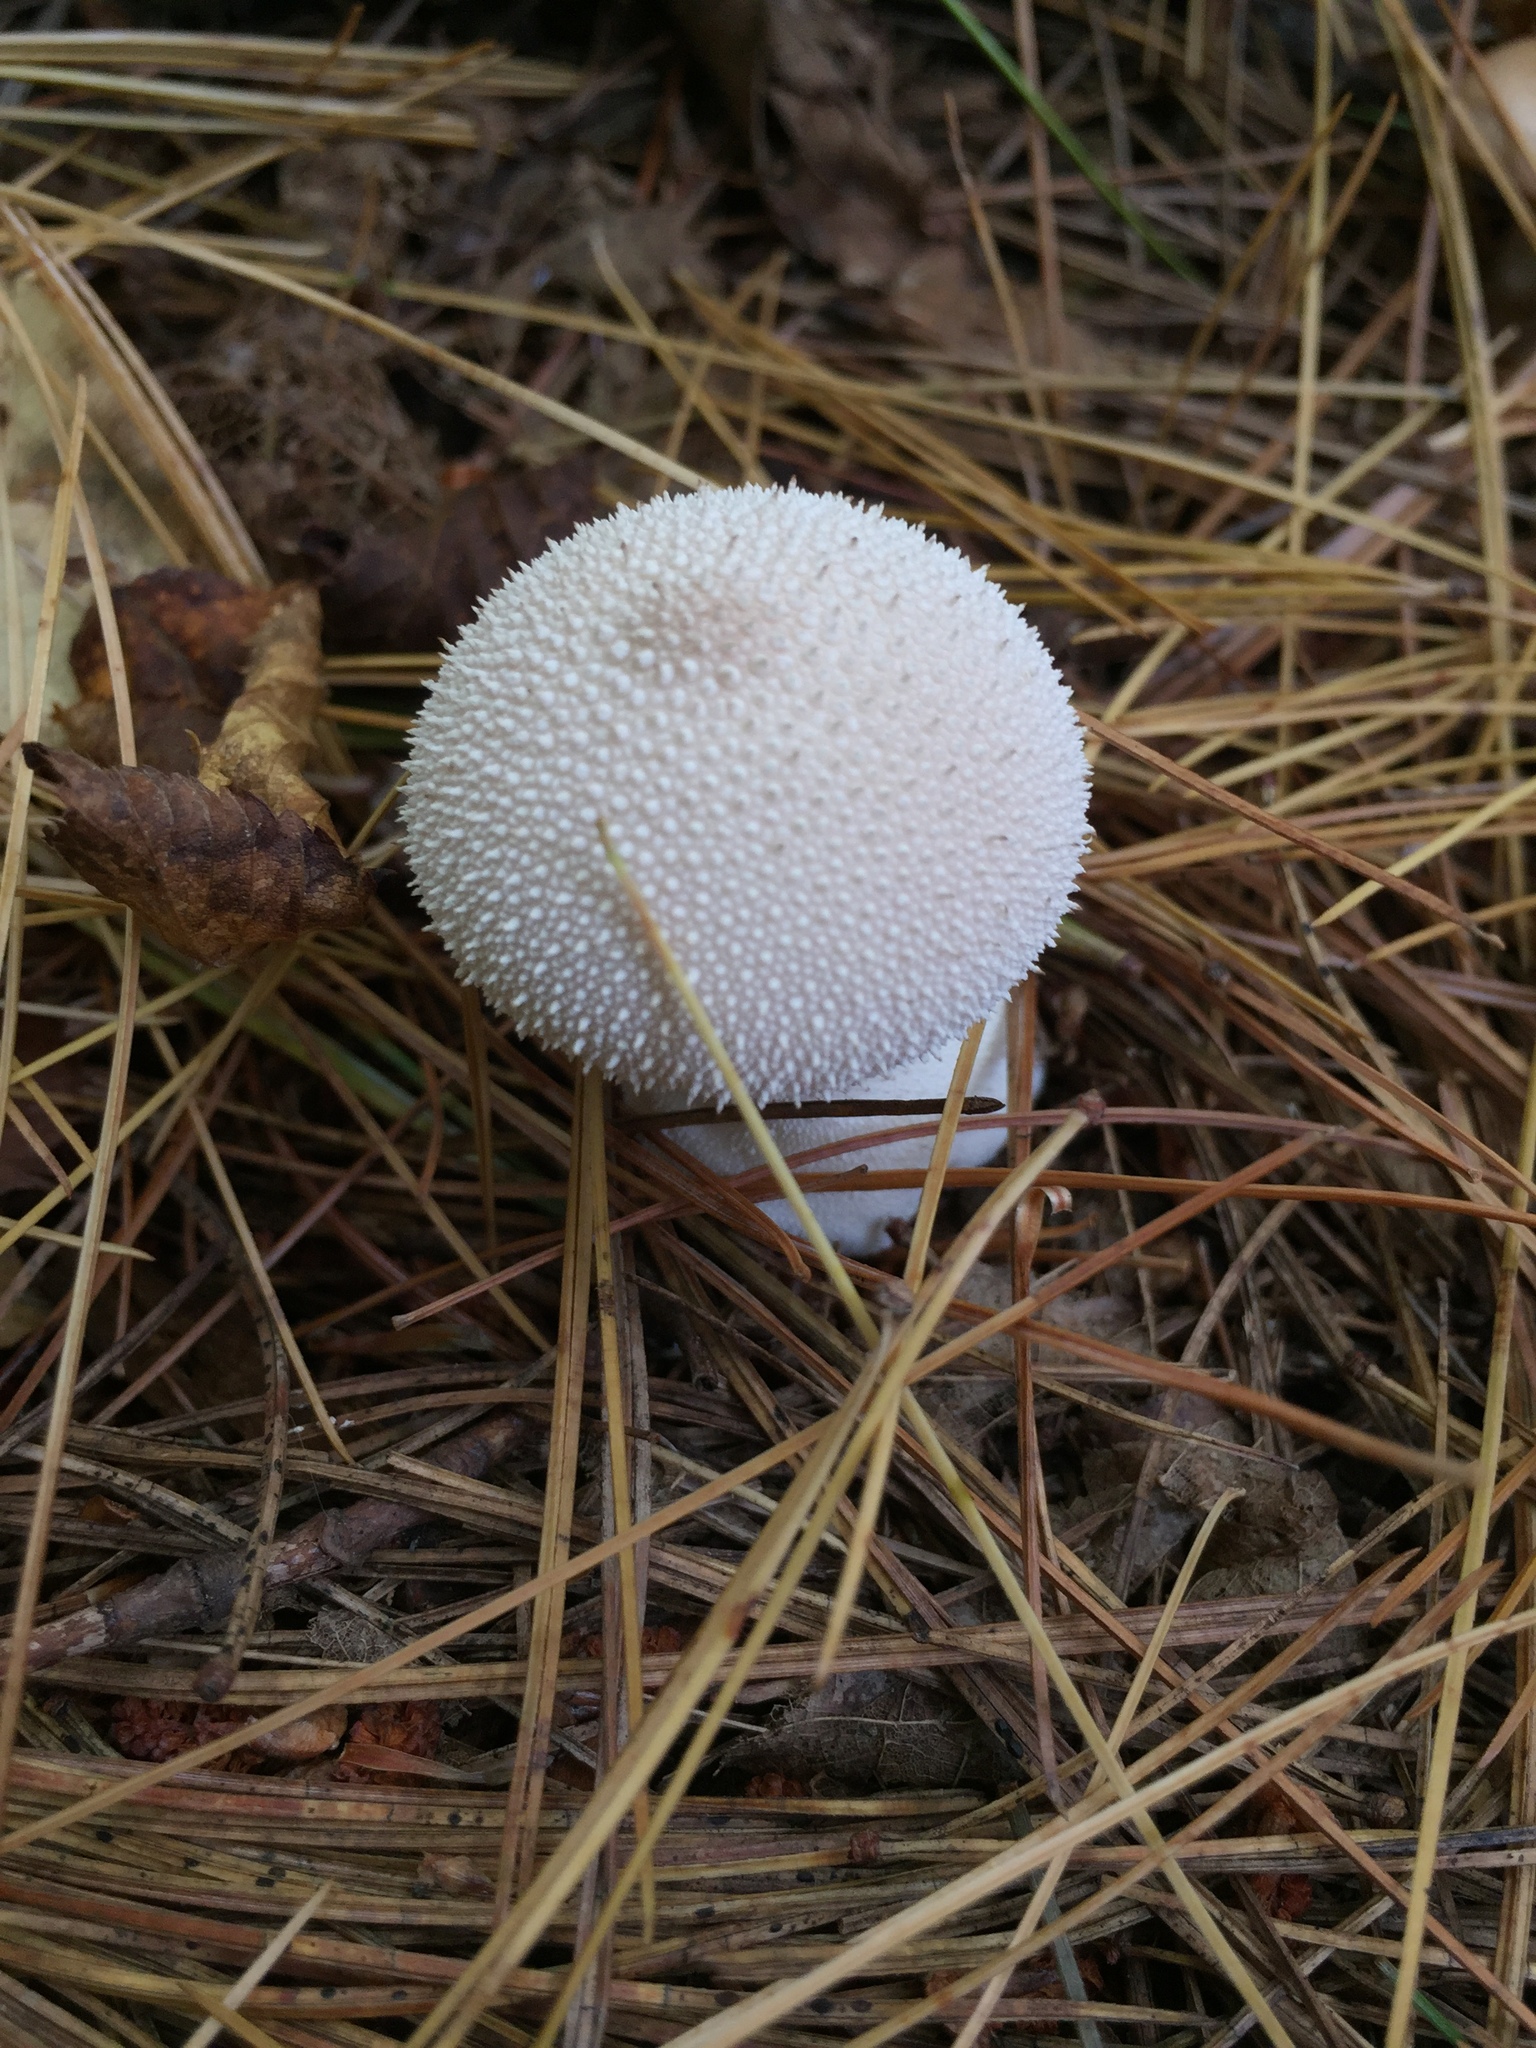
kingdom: Fungi
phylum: Basidiomycota
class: Agaricomycetes
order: Agaricales
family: Lycoperdaceae
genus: Lycoperdon
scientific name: Lycoperdon perlatum
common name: Common puffball
